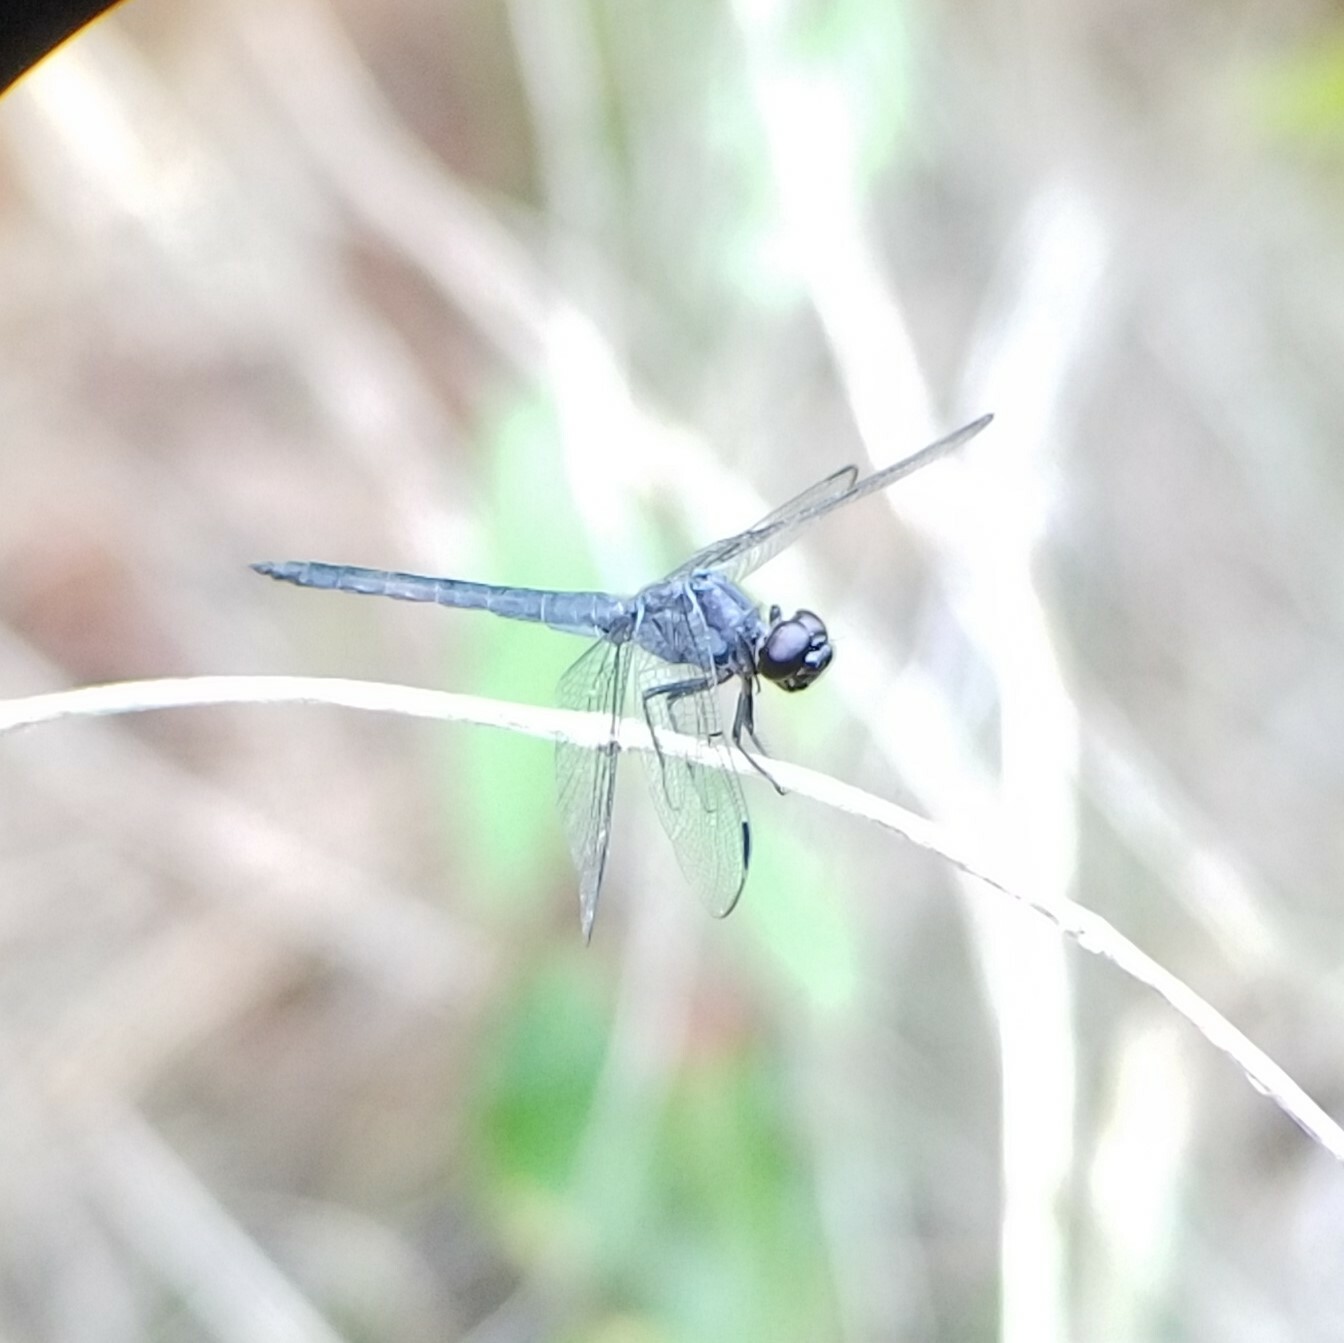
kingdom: Animalia
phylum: Arthropoda
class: Insecta
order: Odonata
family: Libellulidae
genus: Libellula
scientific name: Libellula incesta
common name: Slaty skimmer
